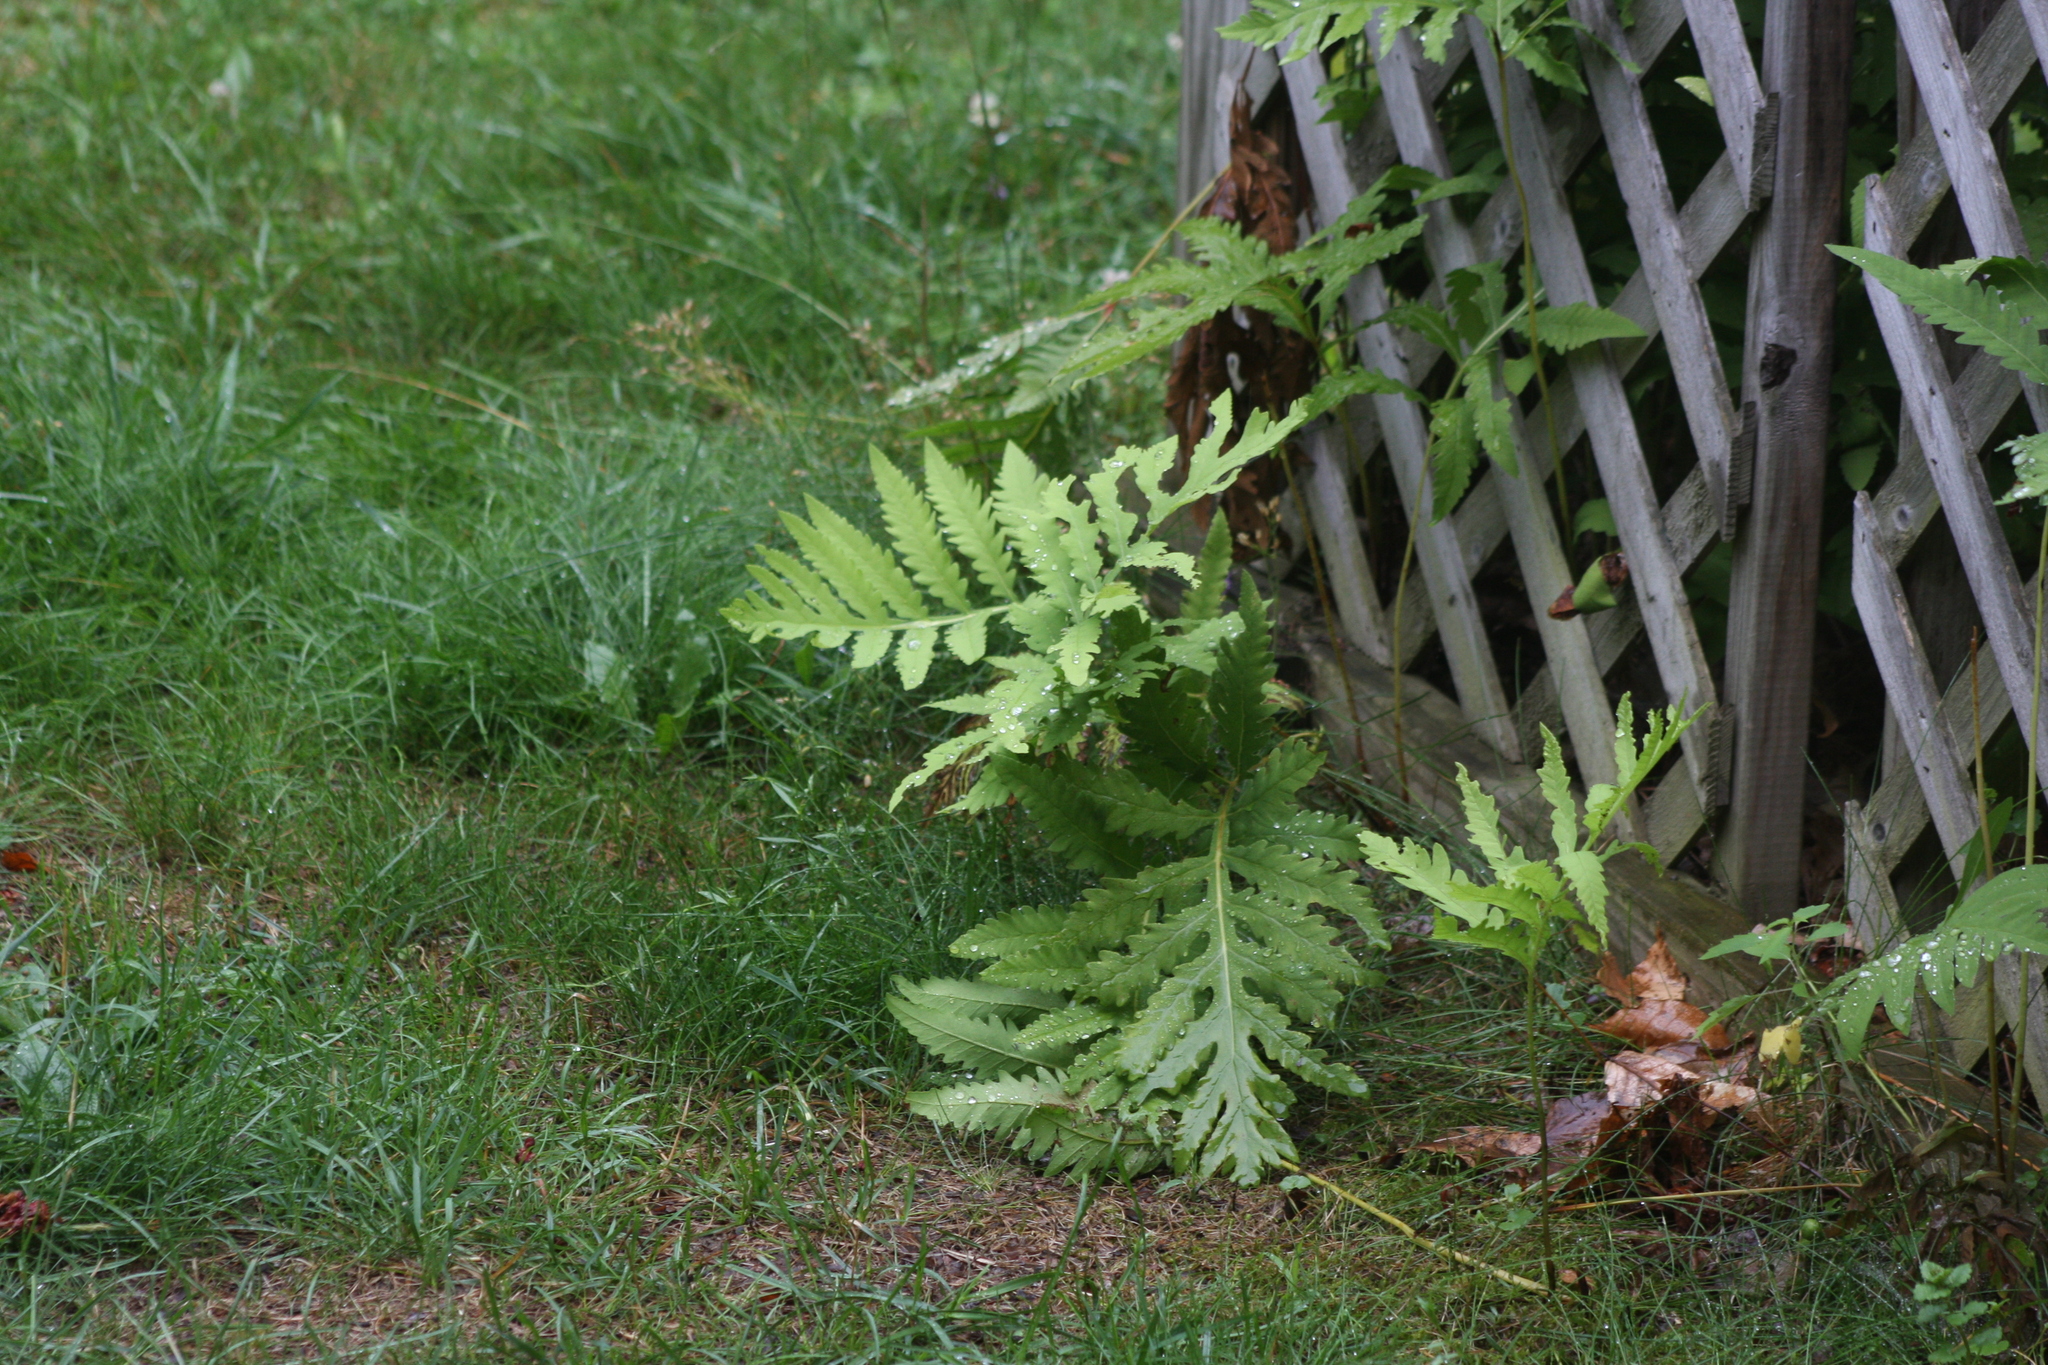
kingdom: Plantae
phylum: Tracheophyta
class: Polypodiopsida
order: Polypodiales
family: Onocleaceae
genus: Onoclea
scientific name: Onoclea sensibilis
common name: Sensitive fern
